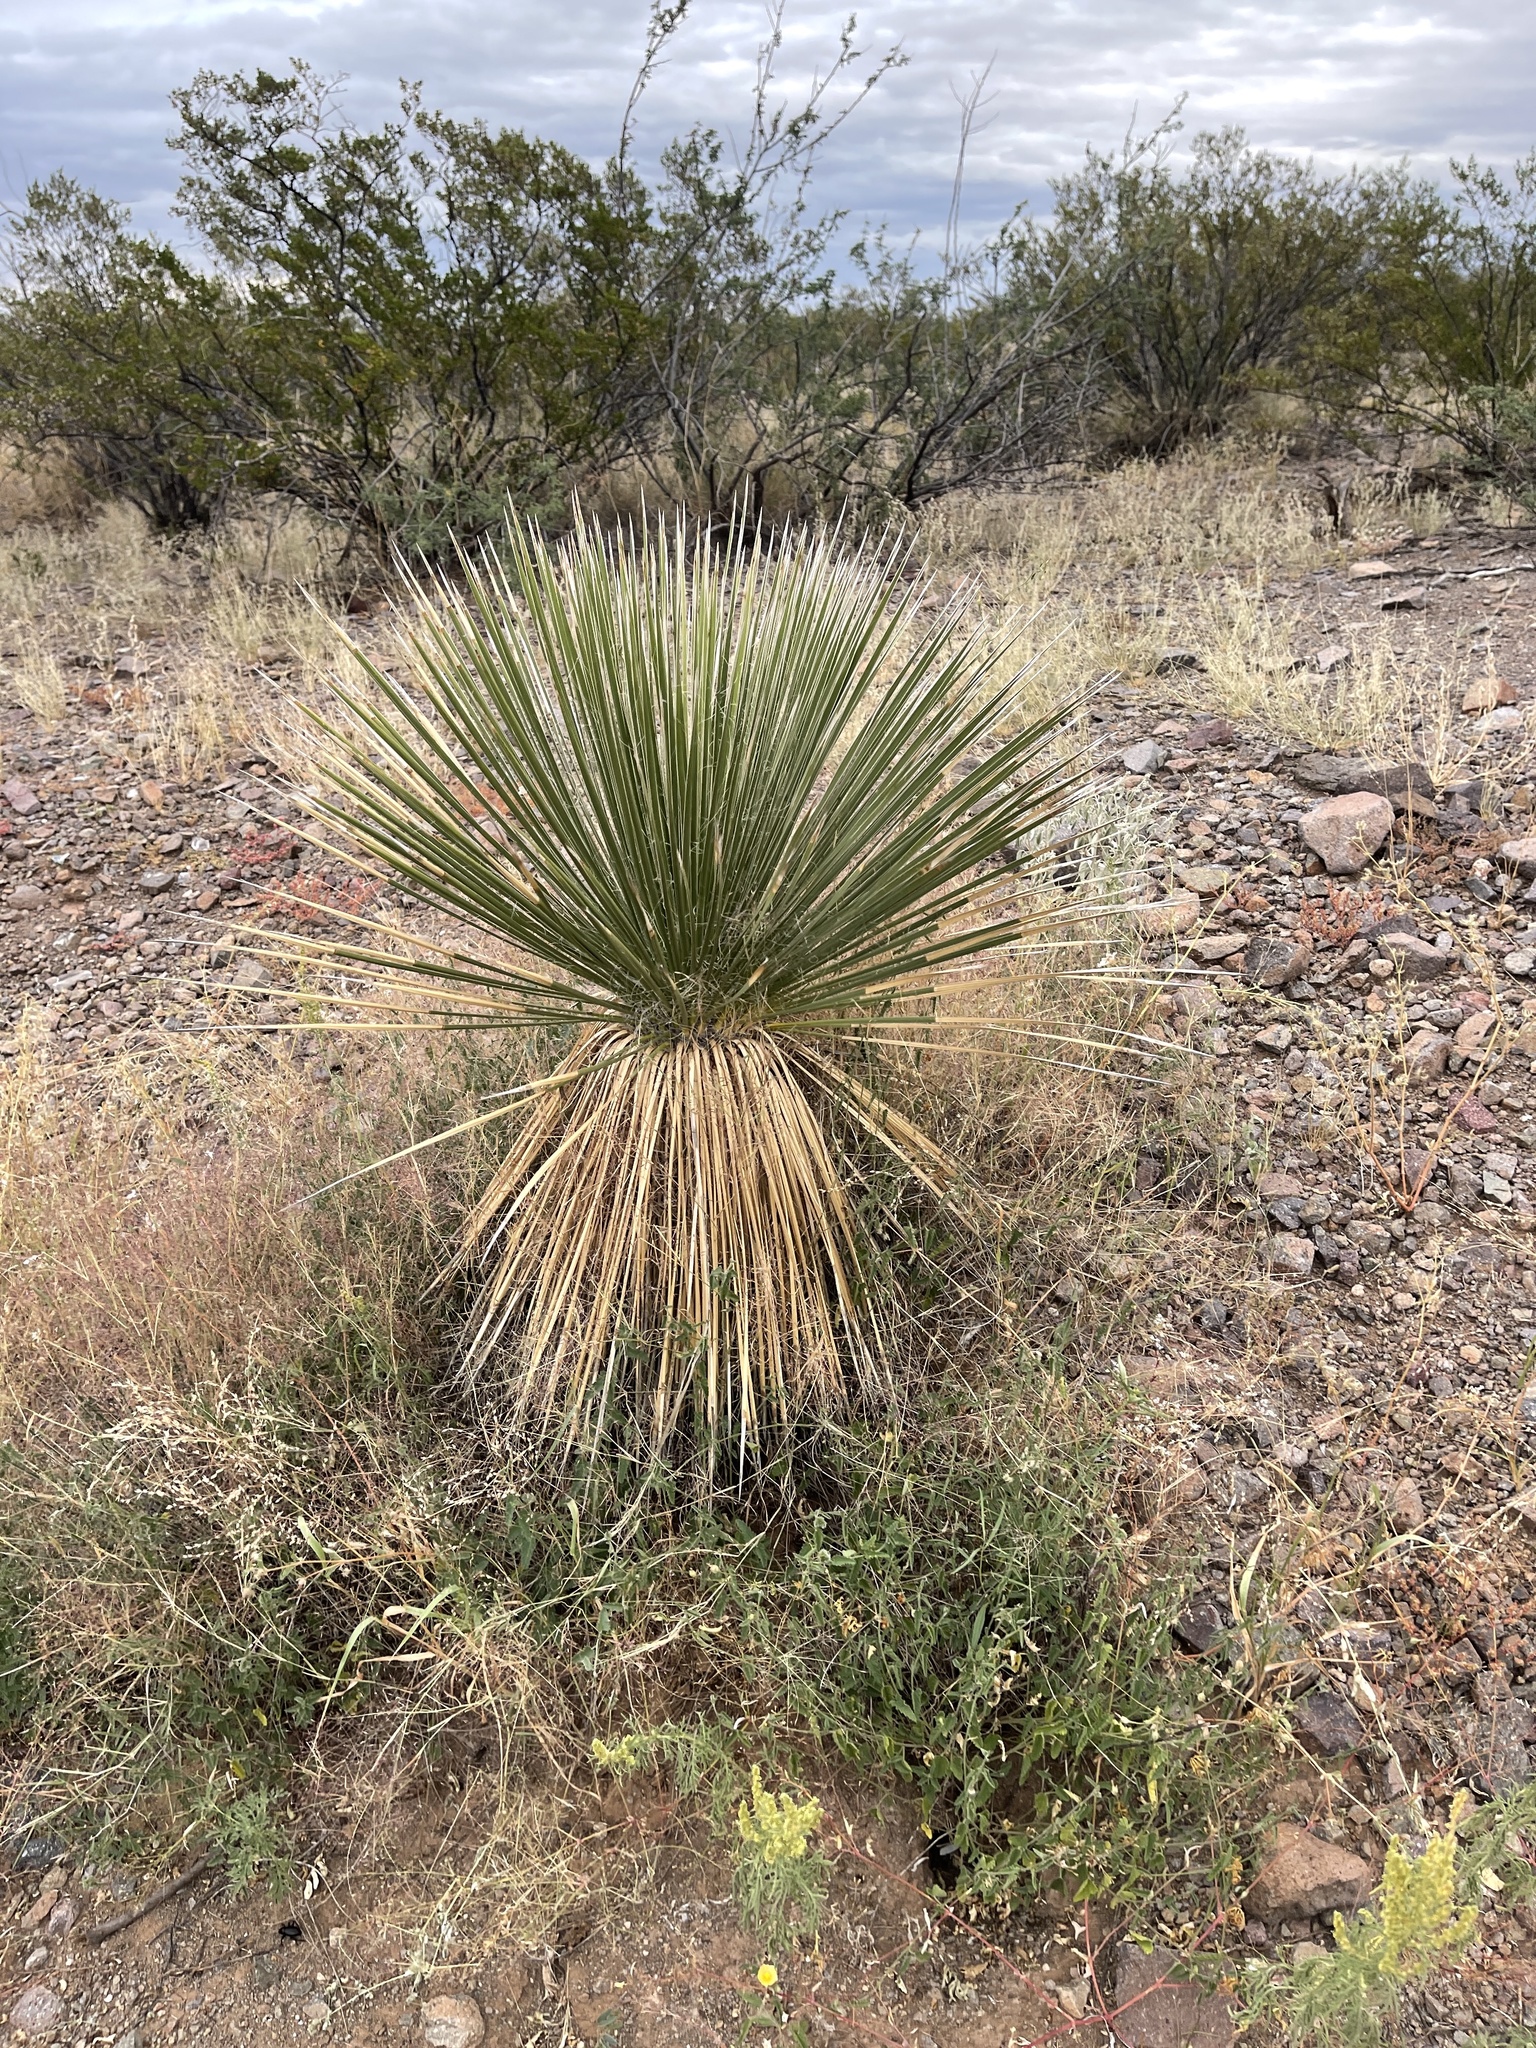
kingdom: Plantae
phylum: Tracheophyta
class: Liliopsida
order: Asparagales
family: Asparagaceae
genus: Yucca
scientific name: Yucca elata
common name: Palmella
